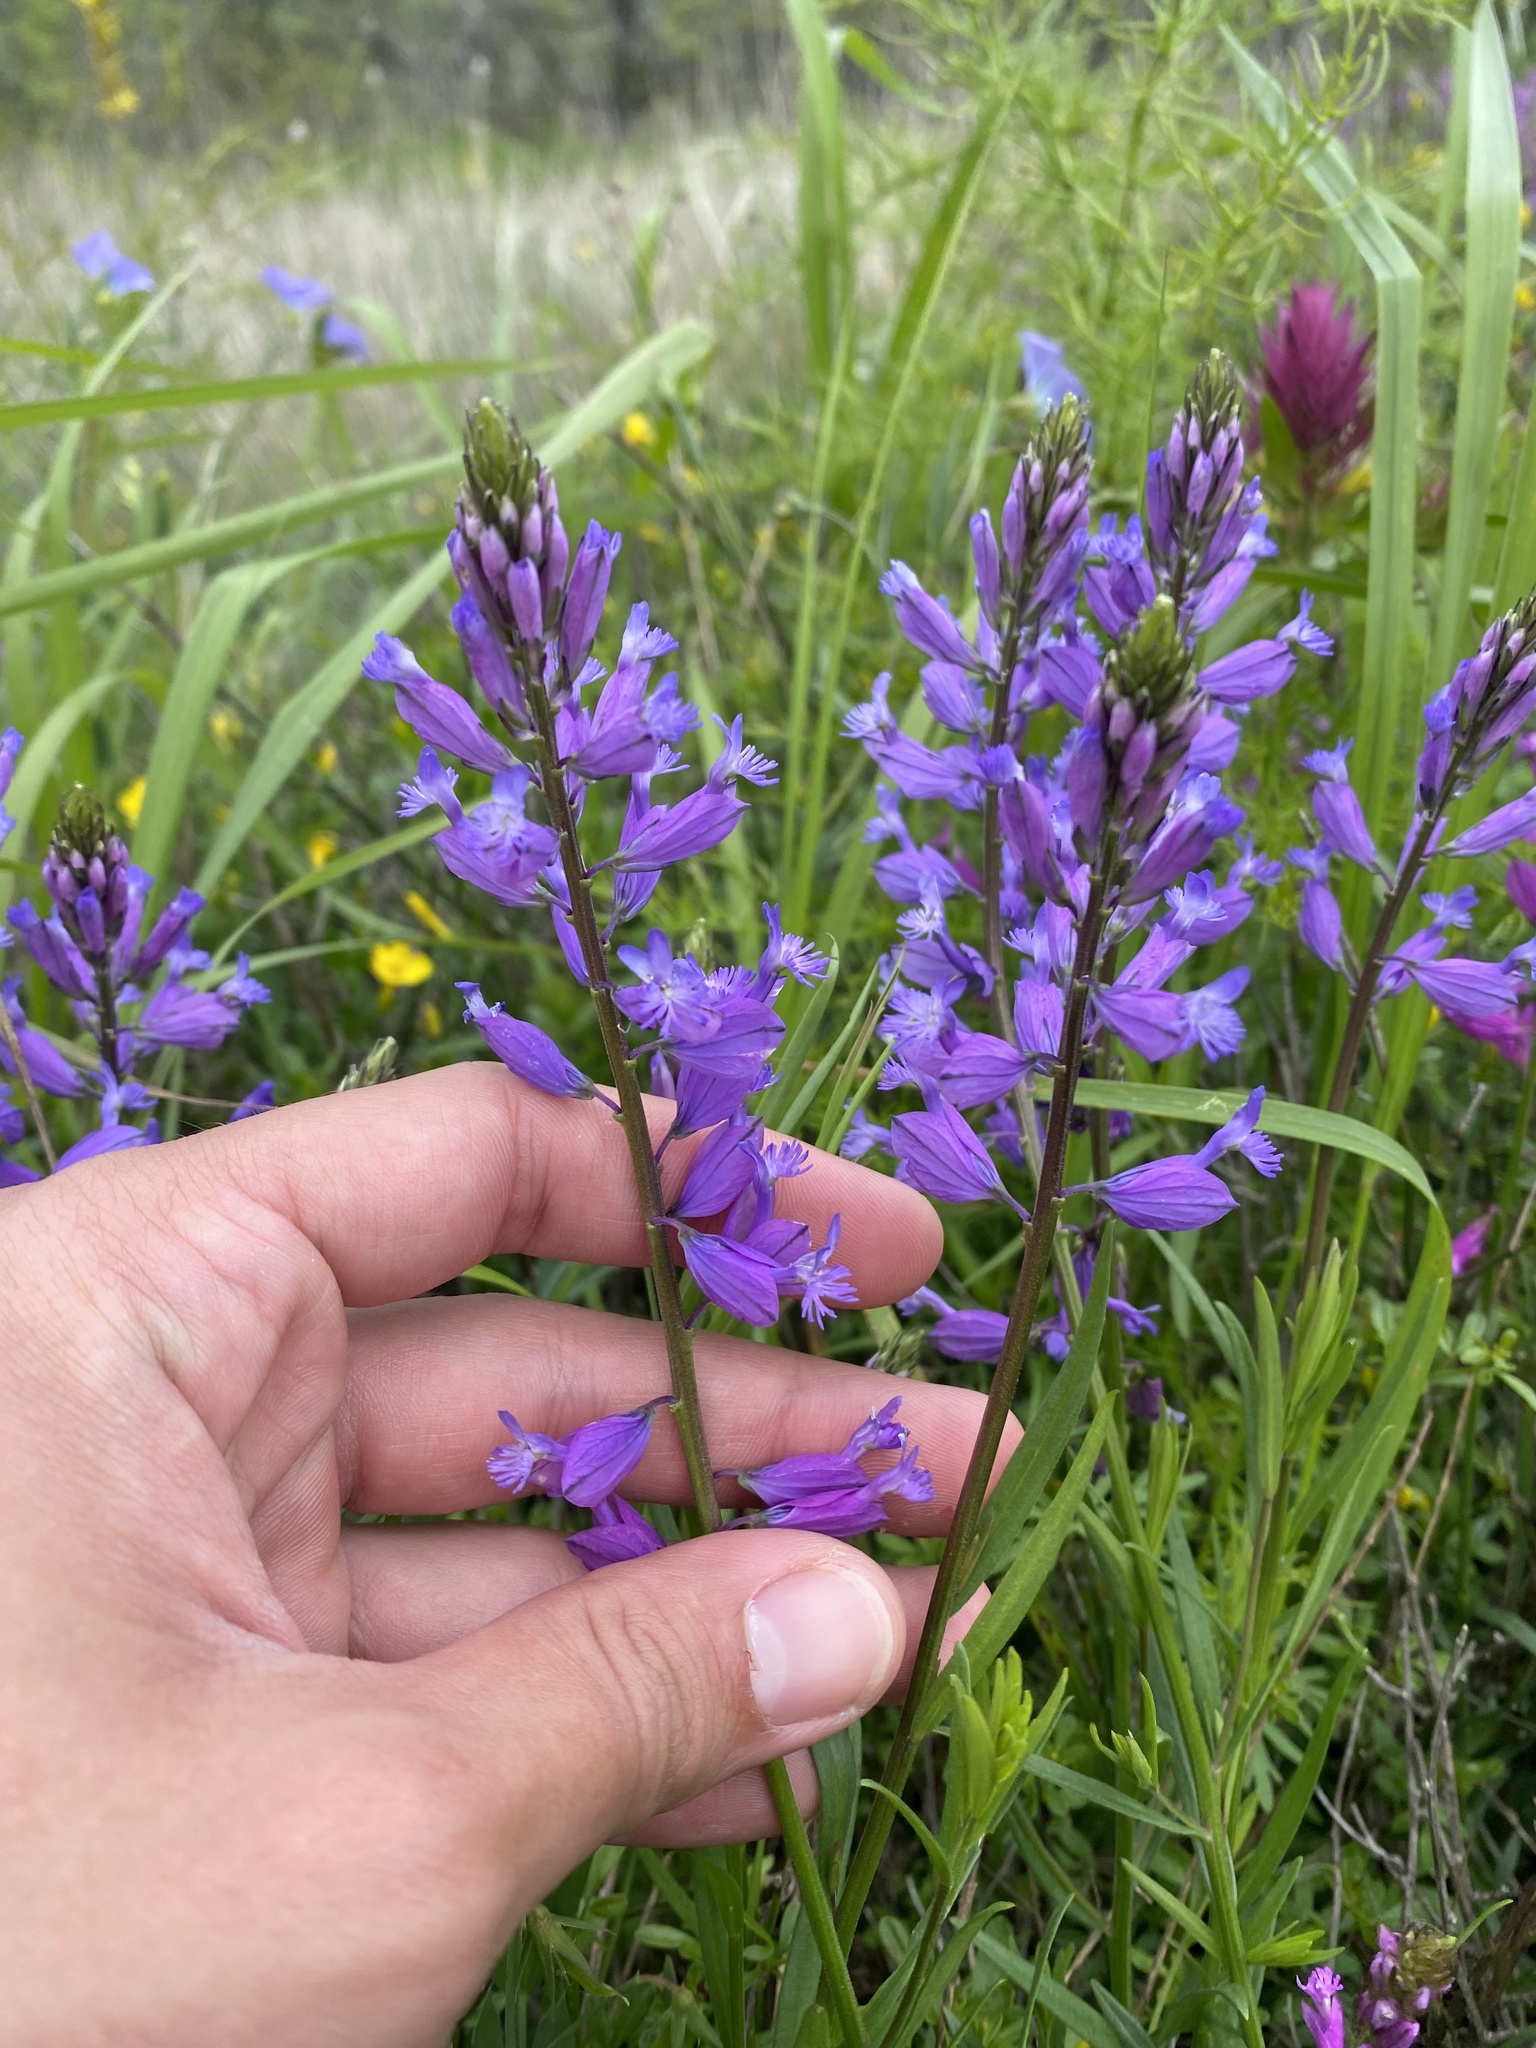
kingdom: Plantae
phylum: Tracheophyta
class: Magnoliopsida
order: Fabales
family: Polygalaceae
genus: Polygala
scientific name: Polygala major
